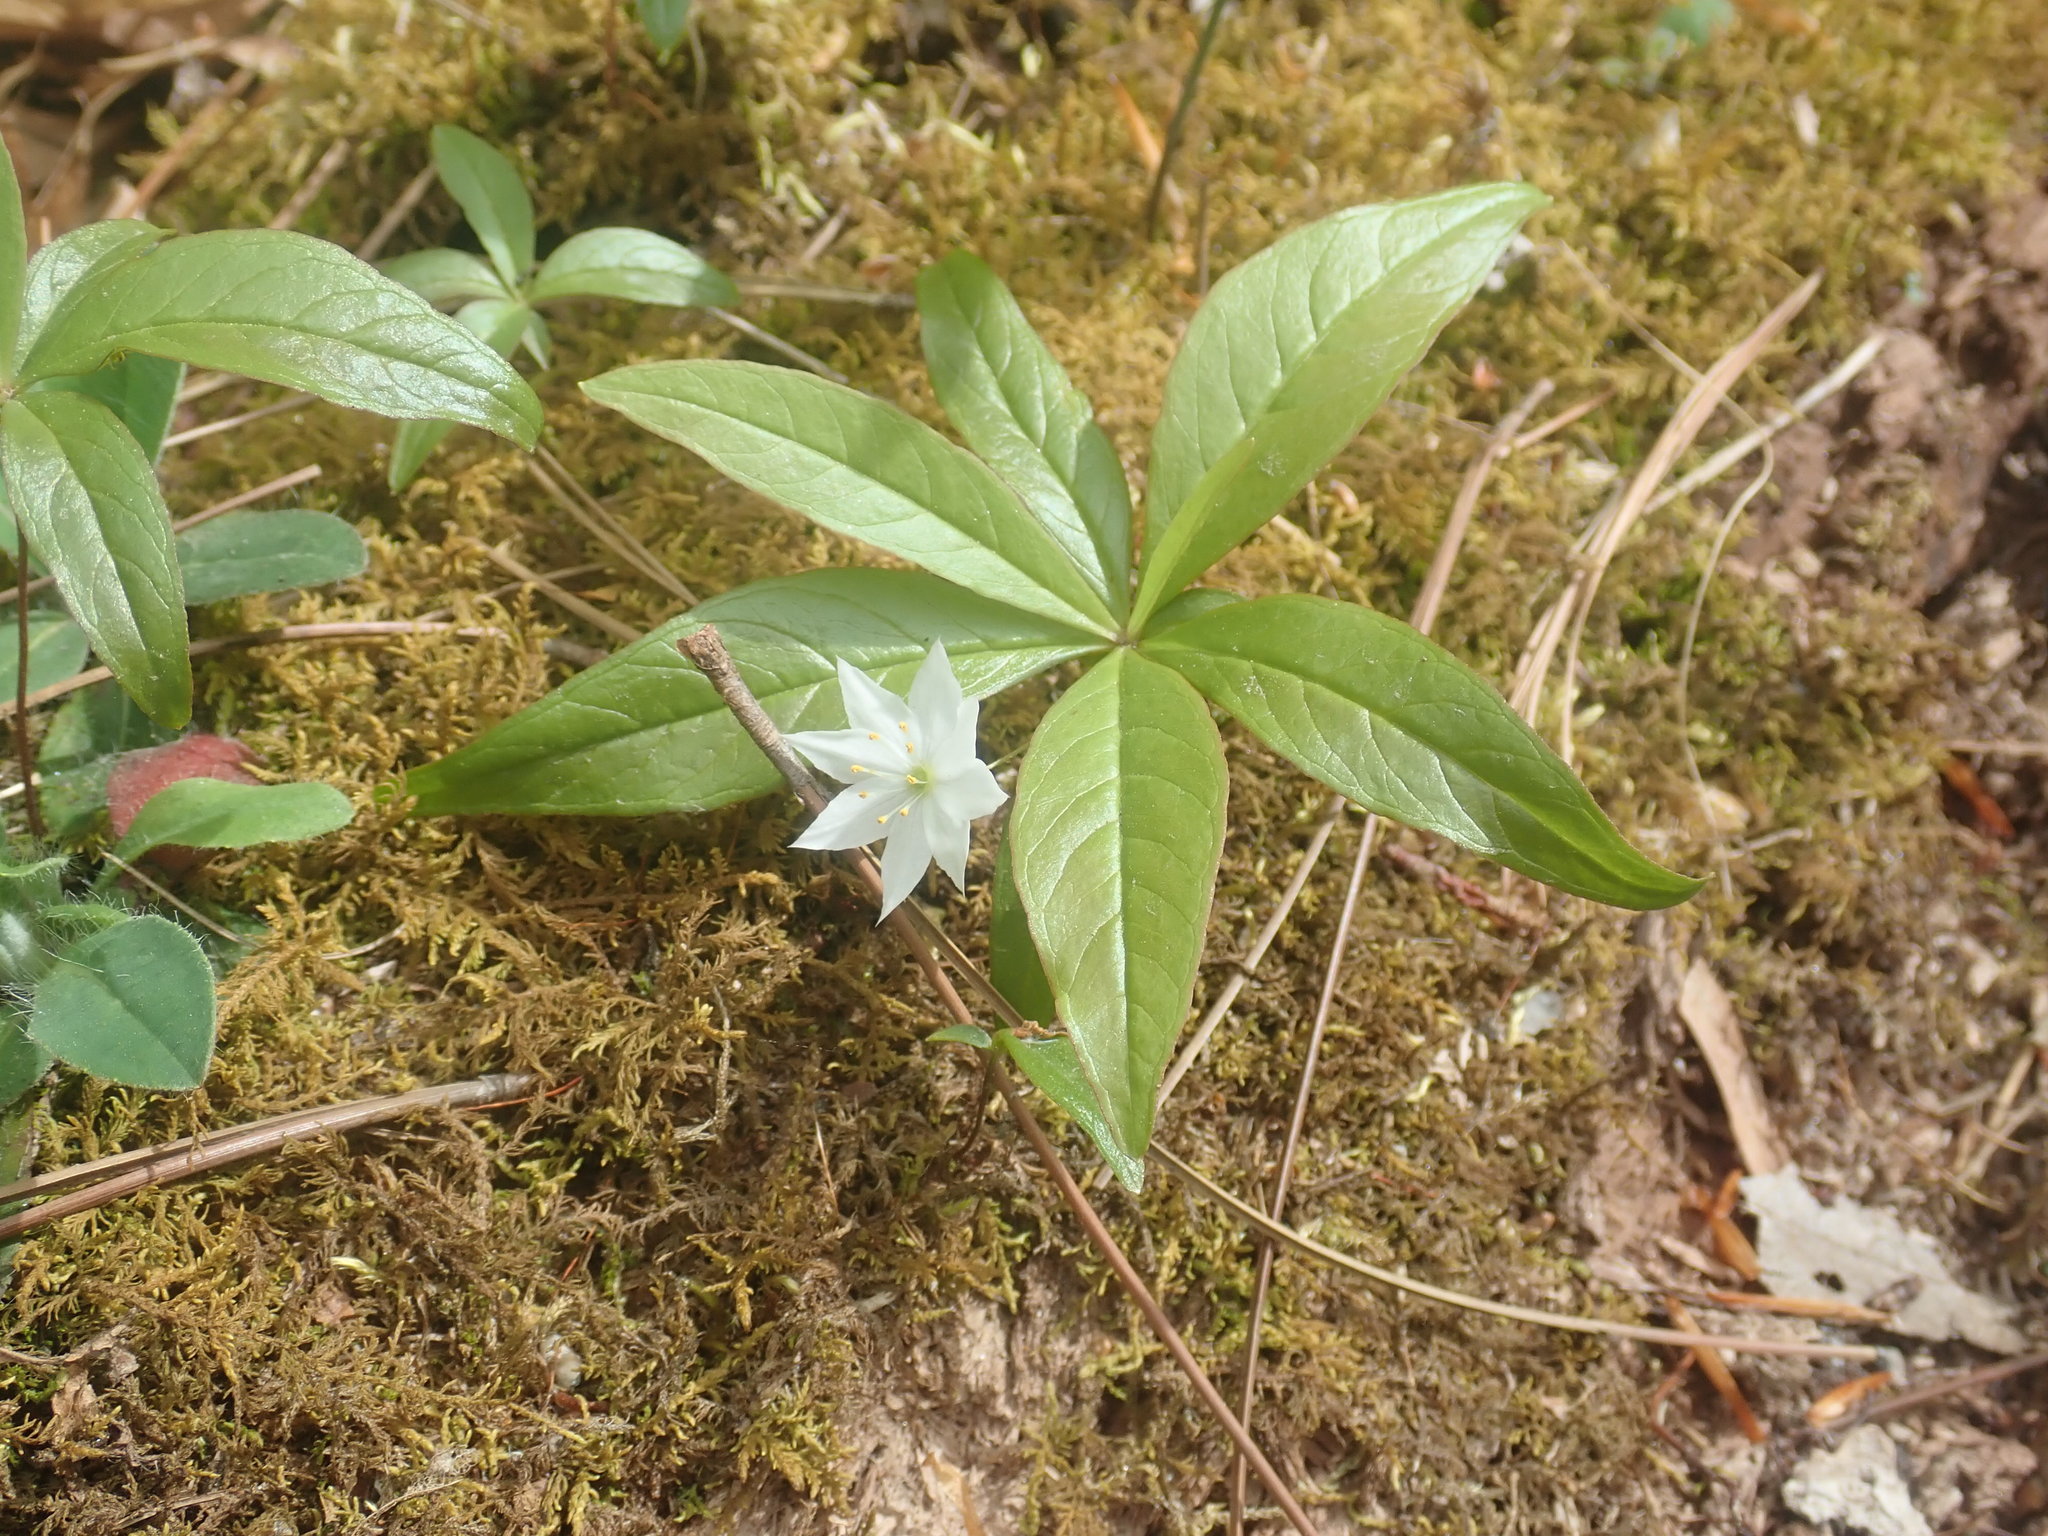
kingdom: Plantae
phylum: Tracheophyta
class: Magnoliopsida
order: Ericales
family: Primulaceae
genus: Lysimachia
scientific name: Lysimachia borealis
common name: American starflower
